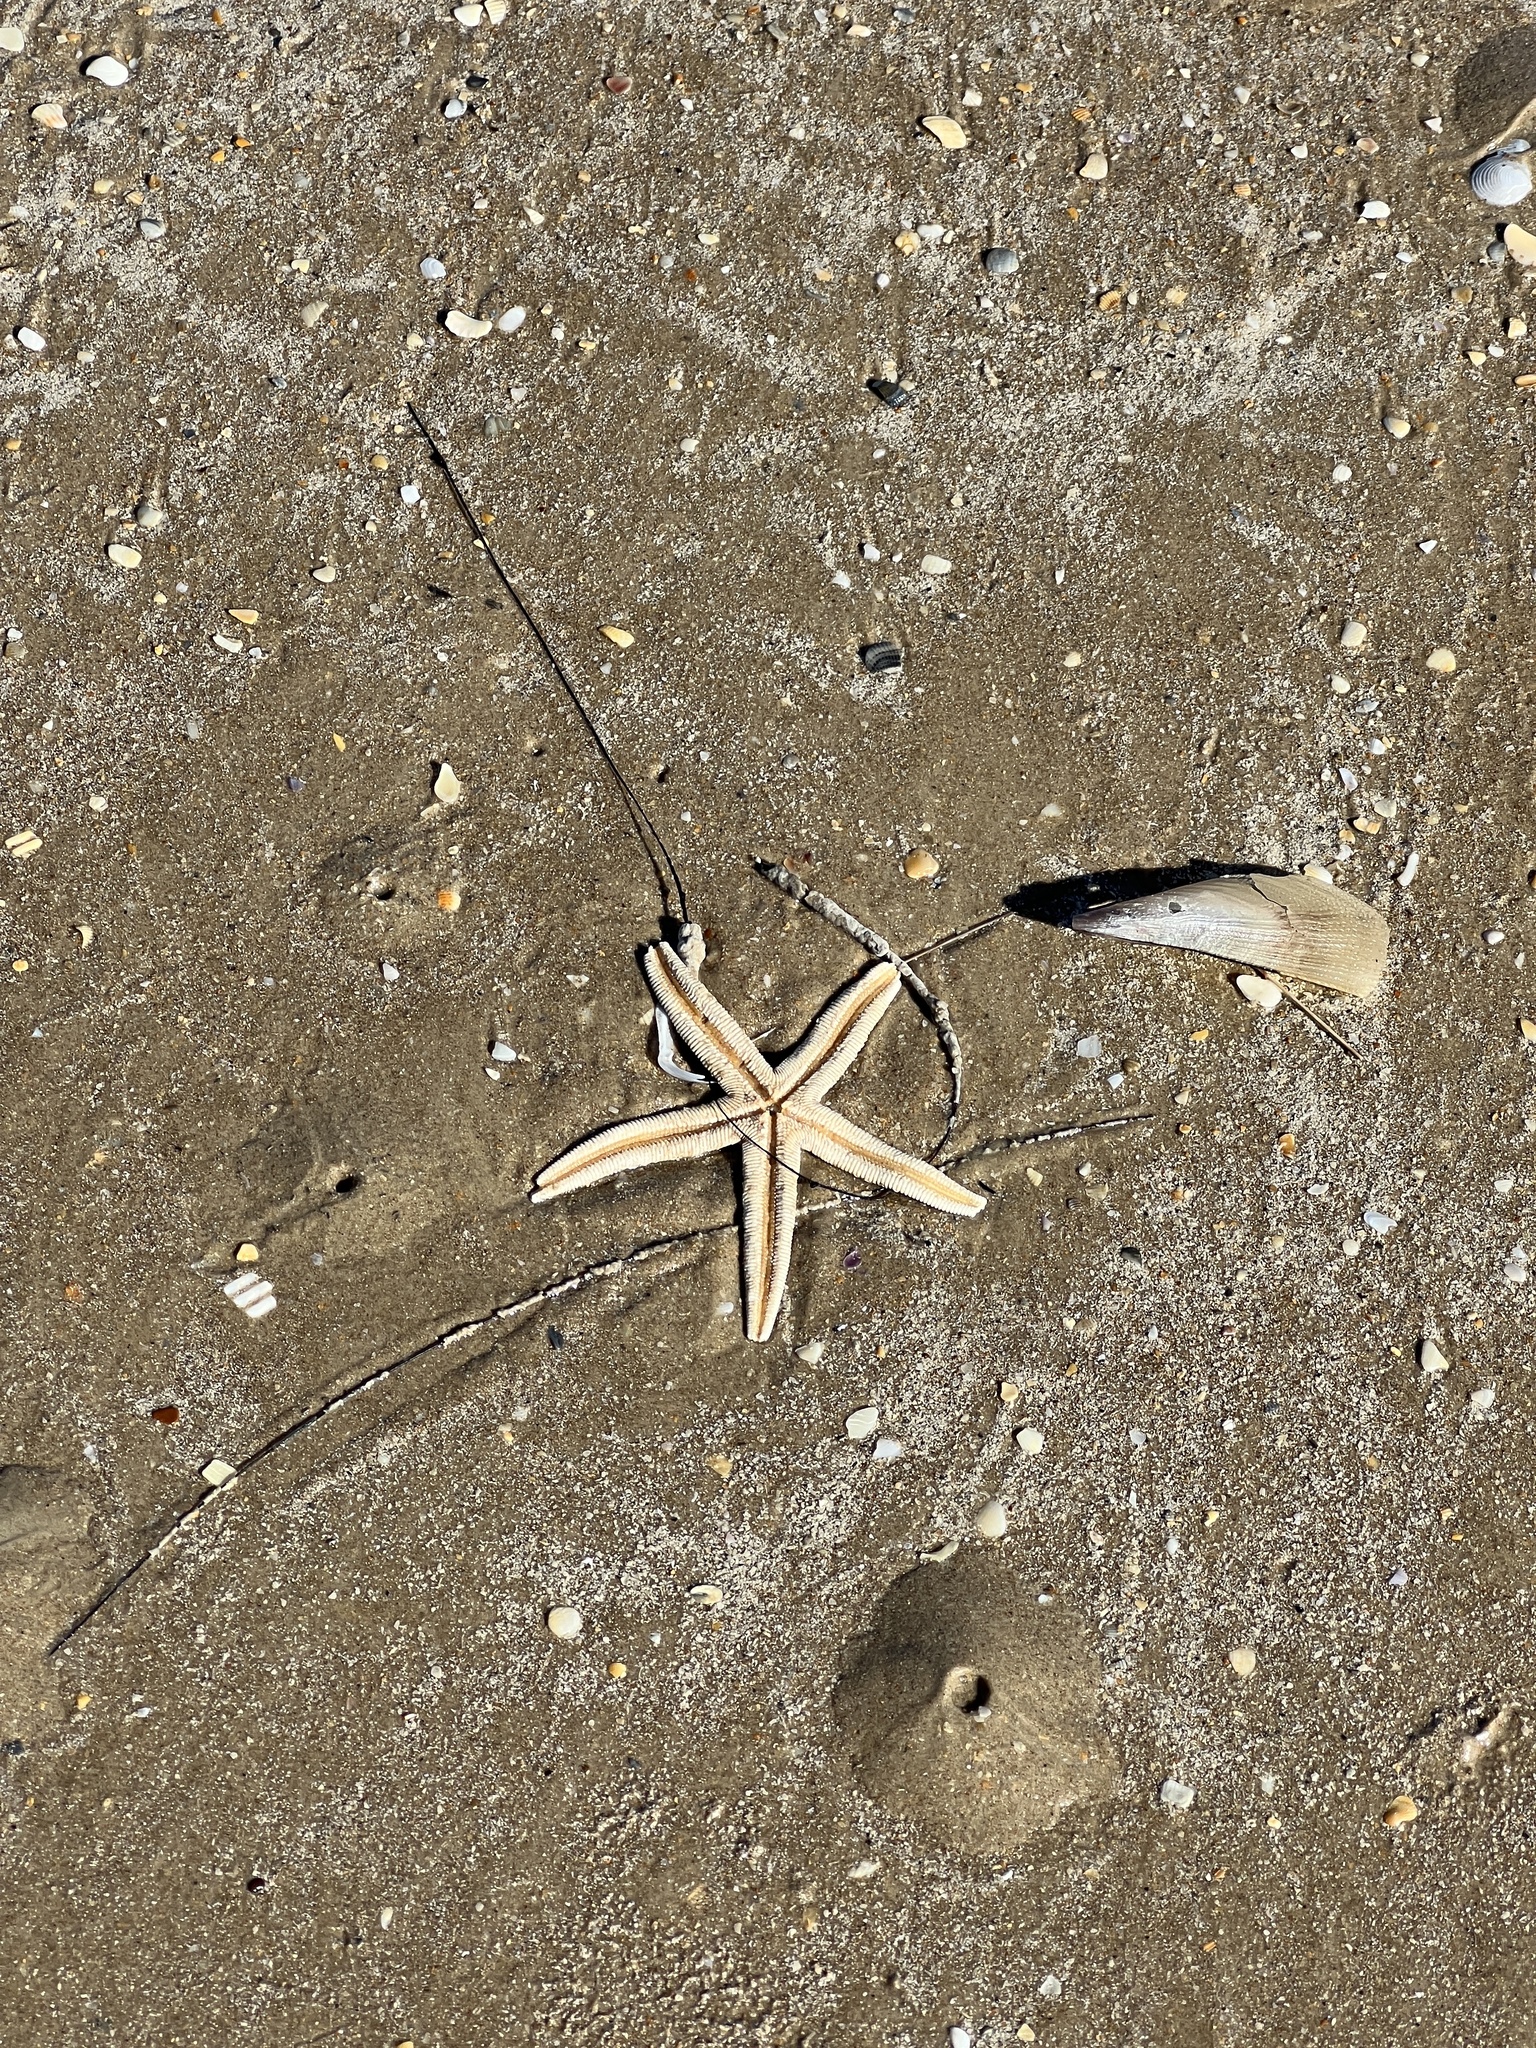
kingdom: Animalia
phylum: Echinodermata
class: Asteroidea
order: Paxillosida
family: Luidiidae
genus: Luidia
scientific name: Luidia clathrata
